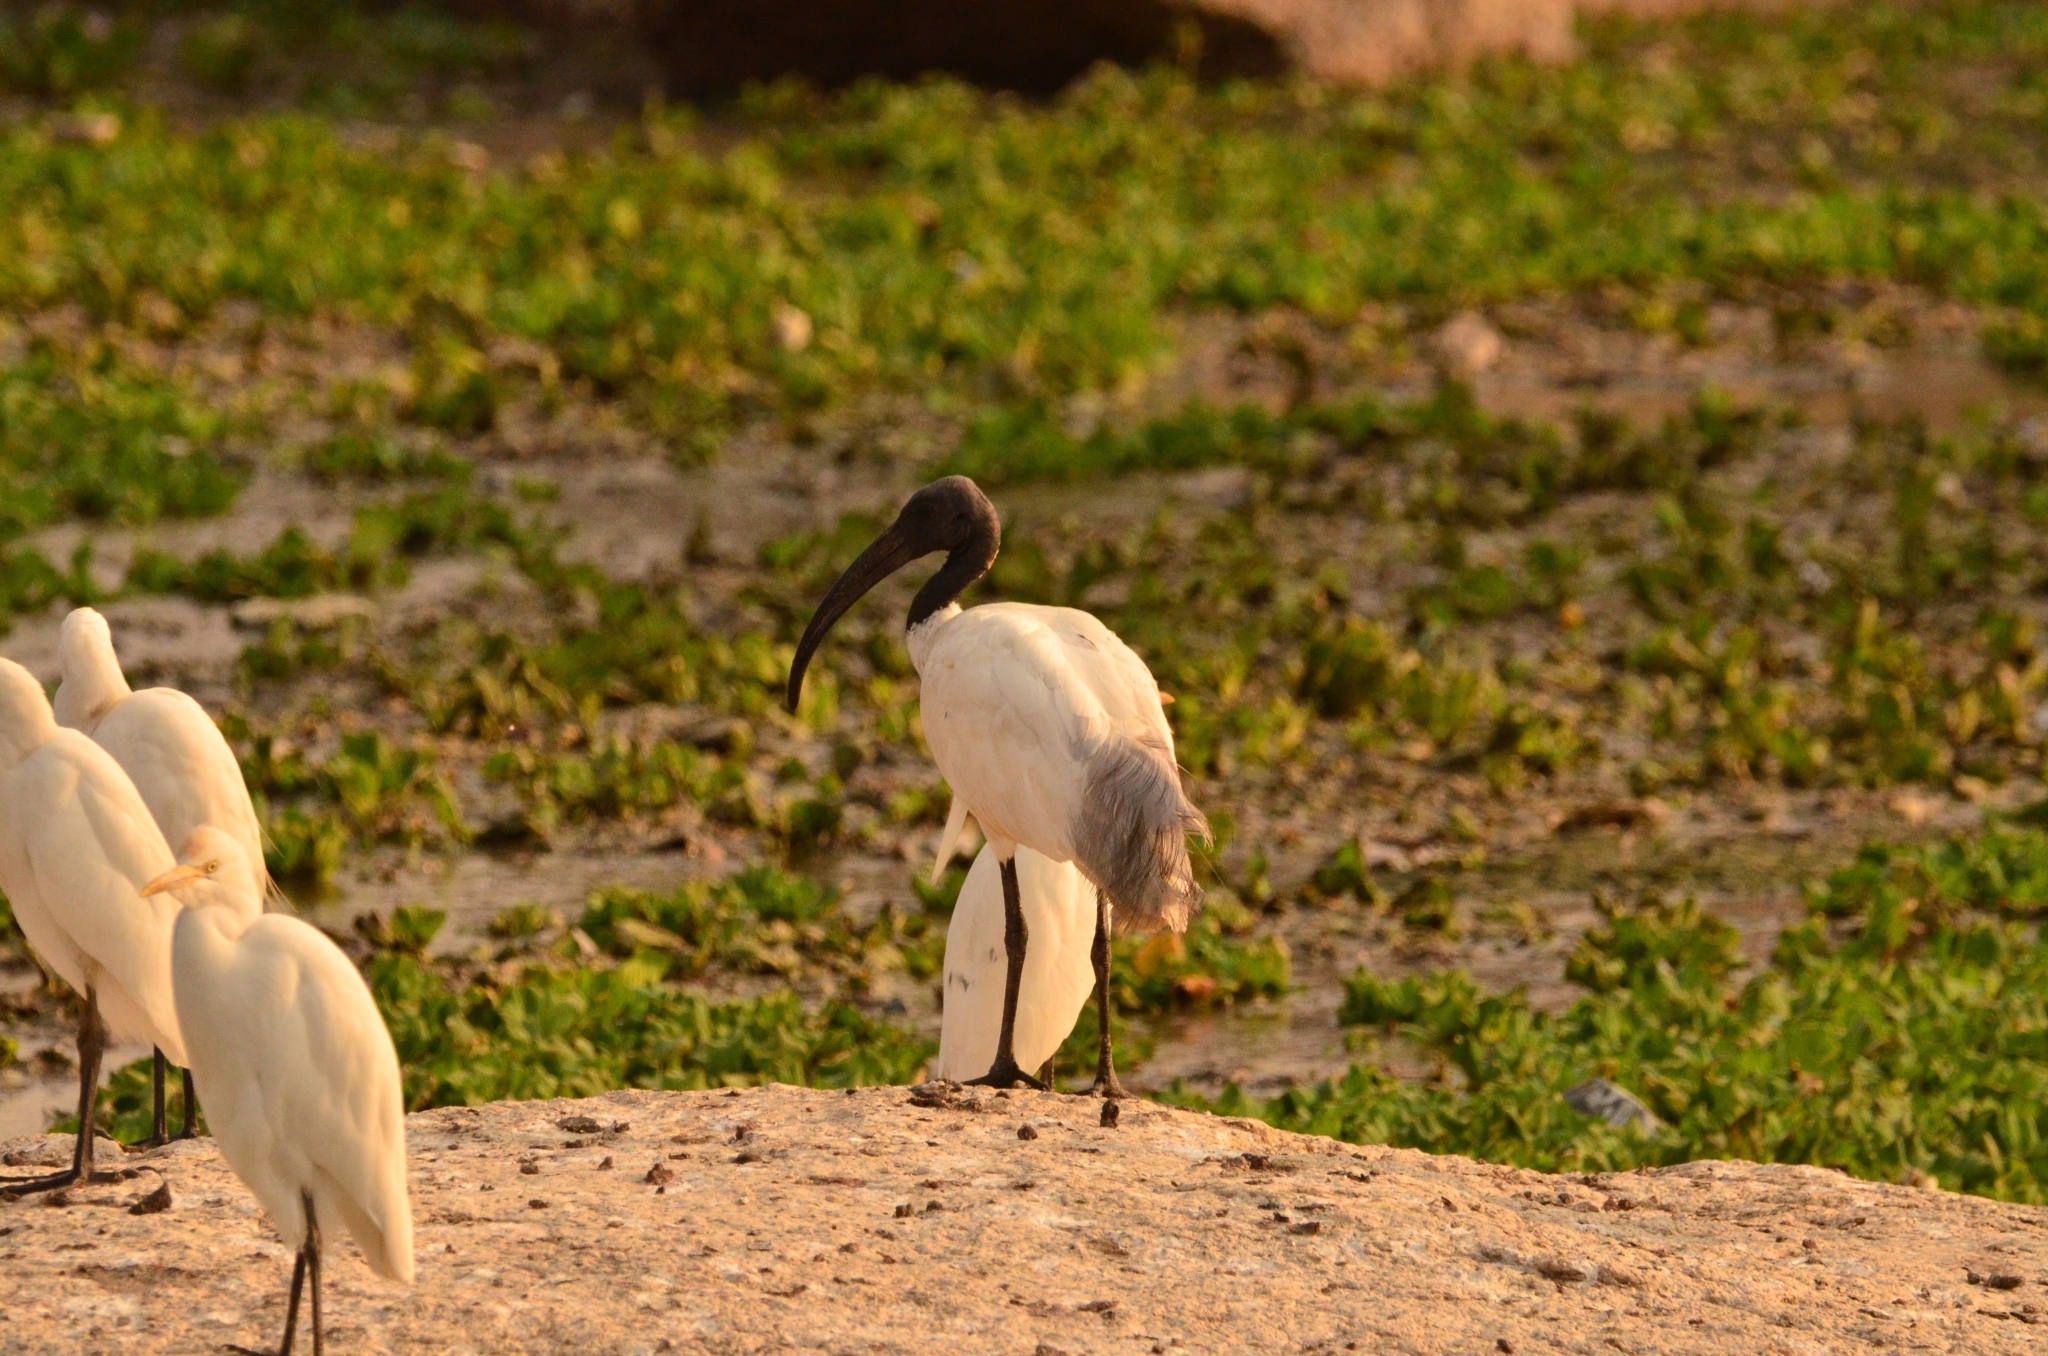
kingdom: Animalia
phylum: Chordata
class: Aves
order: Pelecaniformes
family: Threskiornithidae
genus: Threskiornis
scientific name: Threskiornis melanocephalus
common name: Black-headed ibis
